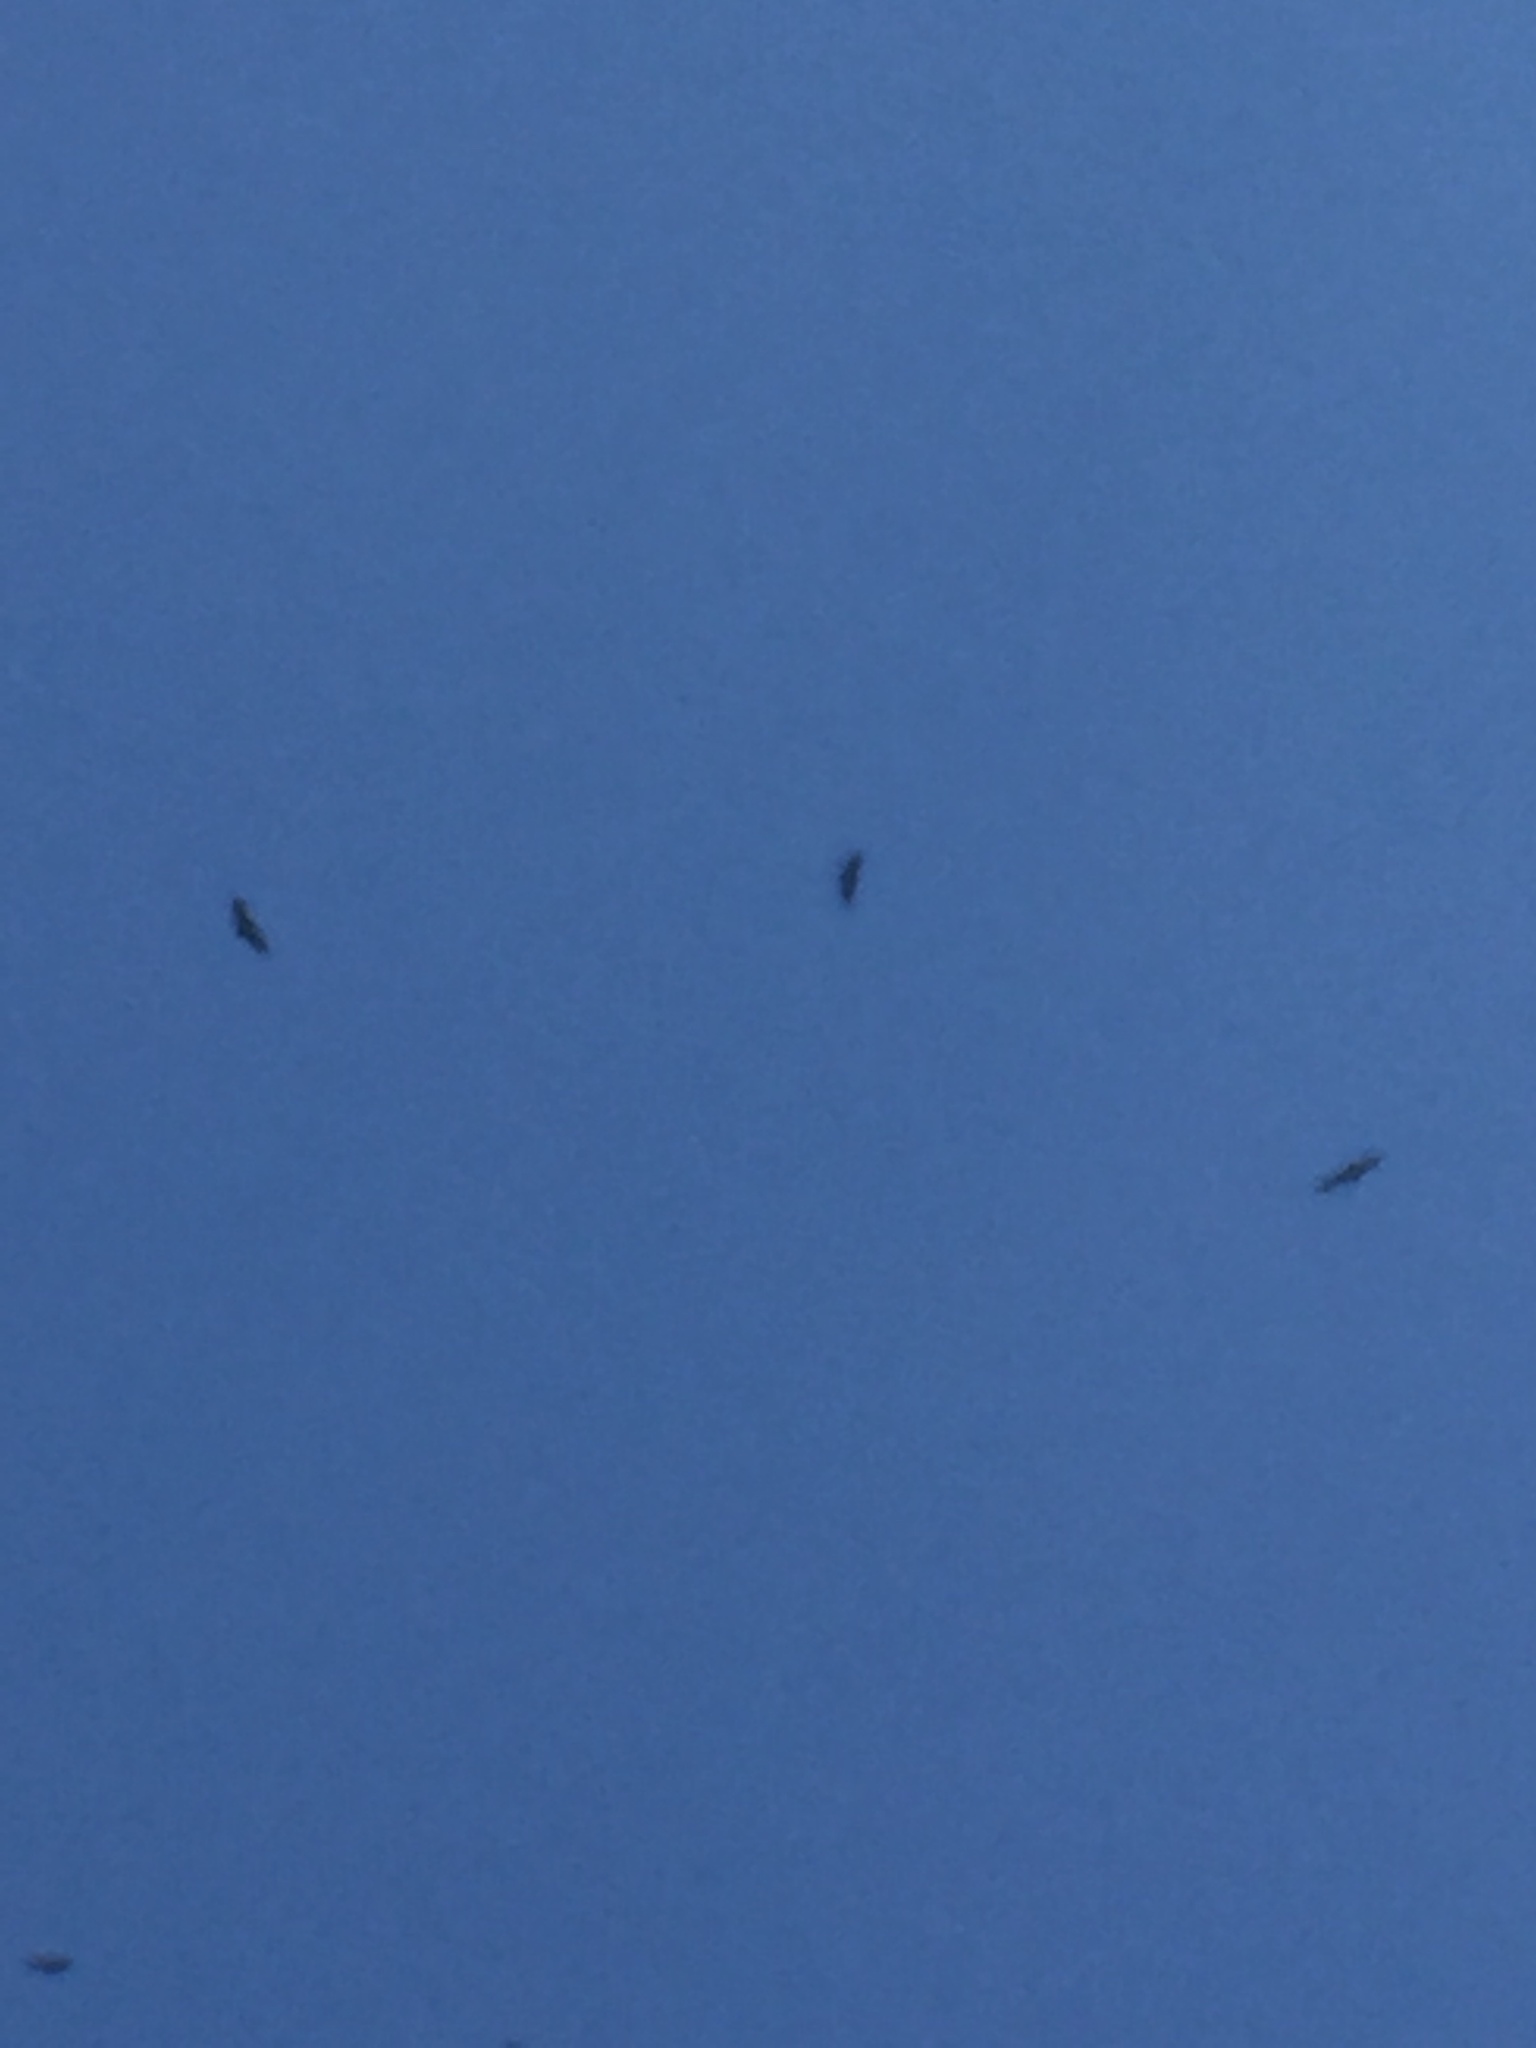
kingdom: Animalia
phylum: Chordata
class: Aves
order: Accipitriformes
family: Accipitridae
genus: Gyps
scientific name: Gyps fulvus
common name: Griffon vulture
